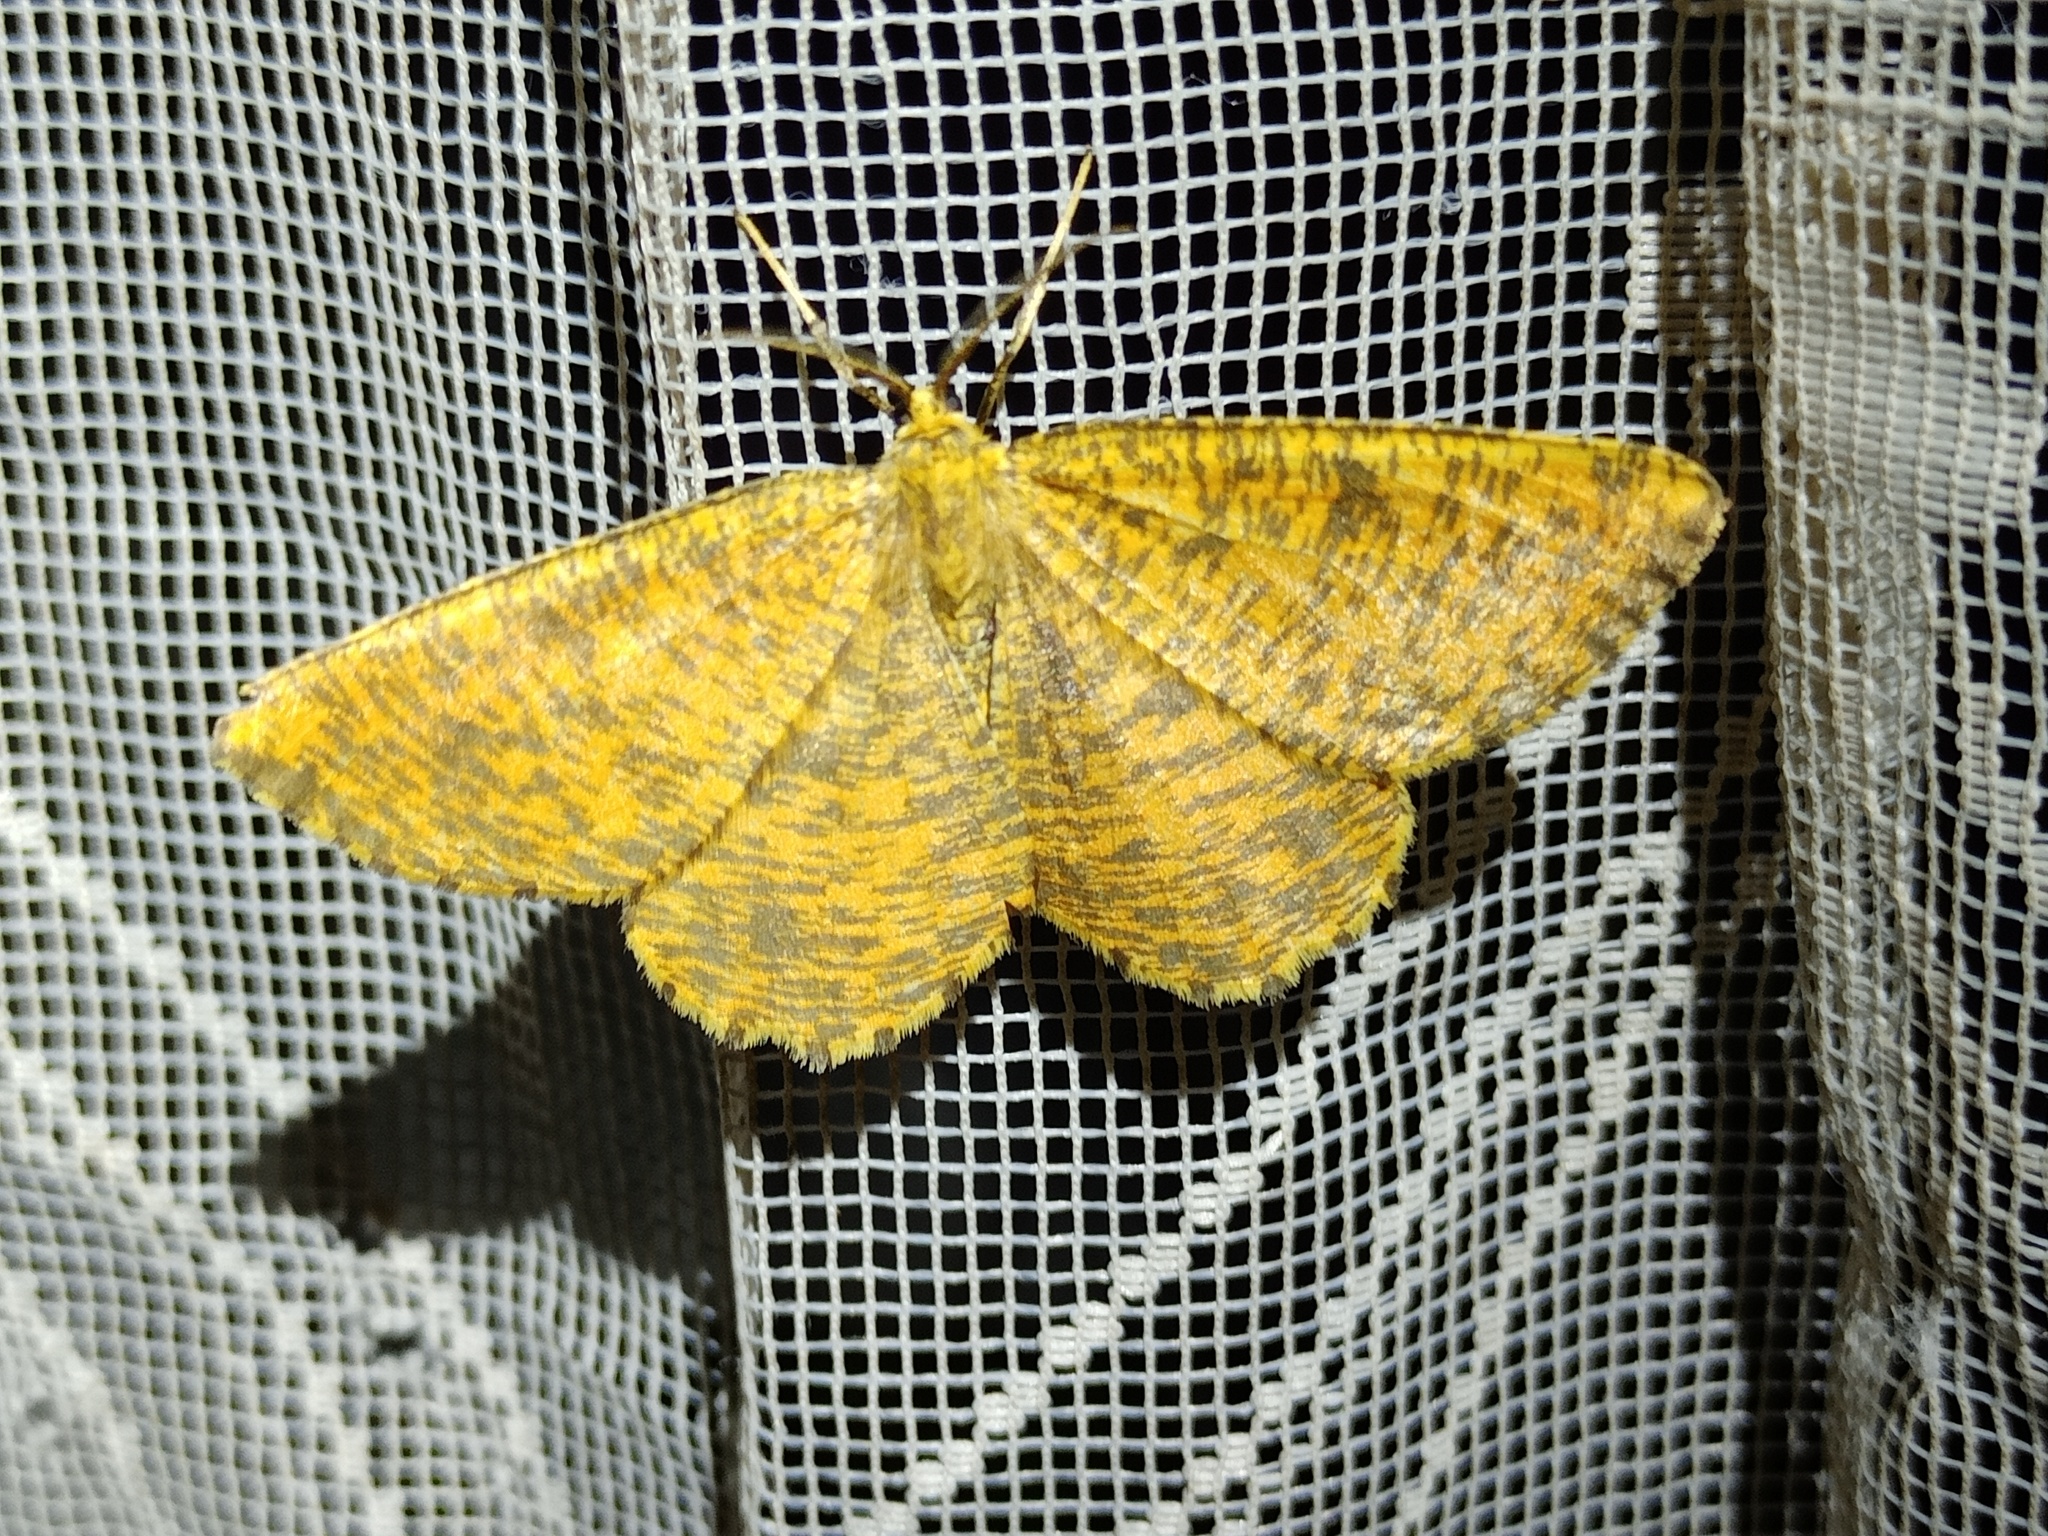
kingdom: Animalia
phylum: Arthropoda
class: Insecta
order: Lepidoptera
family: Geometridae
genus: Angerona
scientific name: Angerona prunaria
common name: Orange moth
